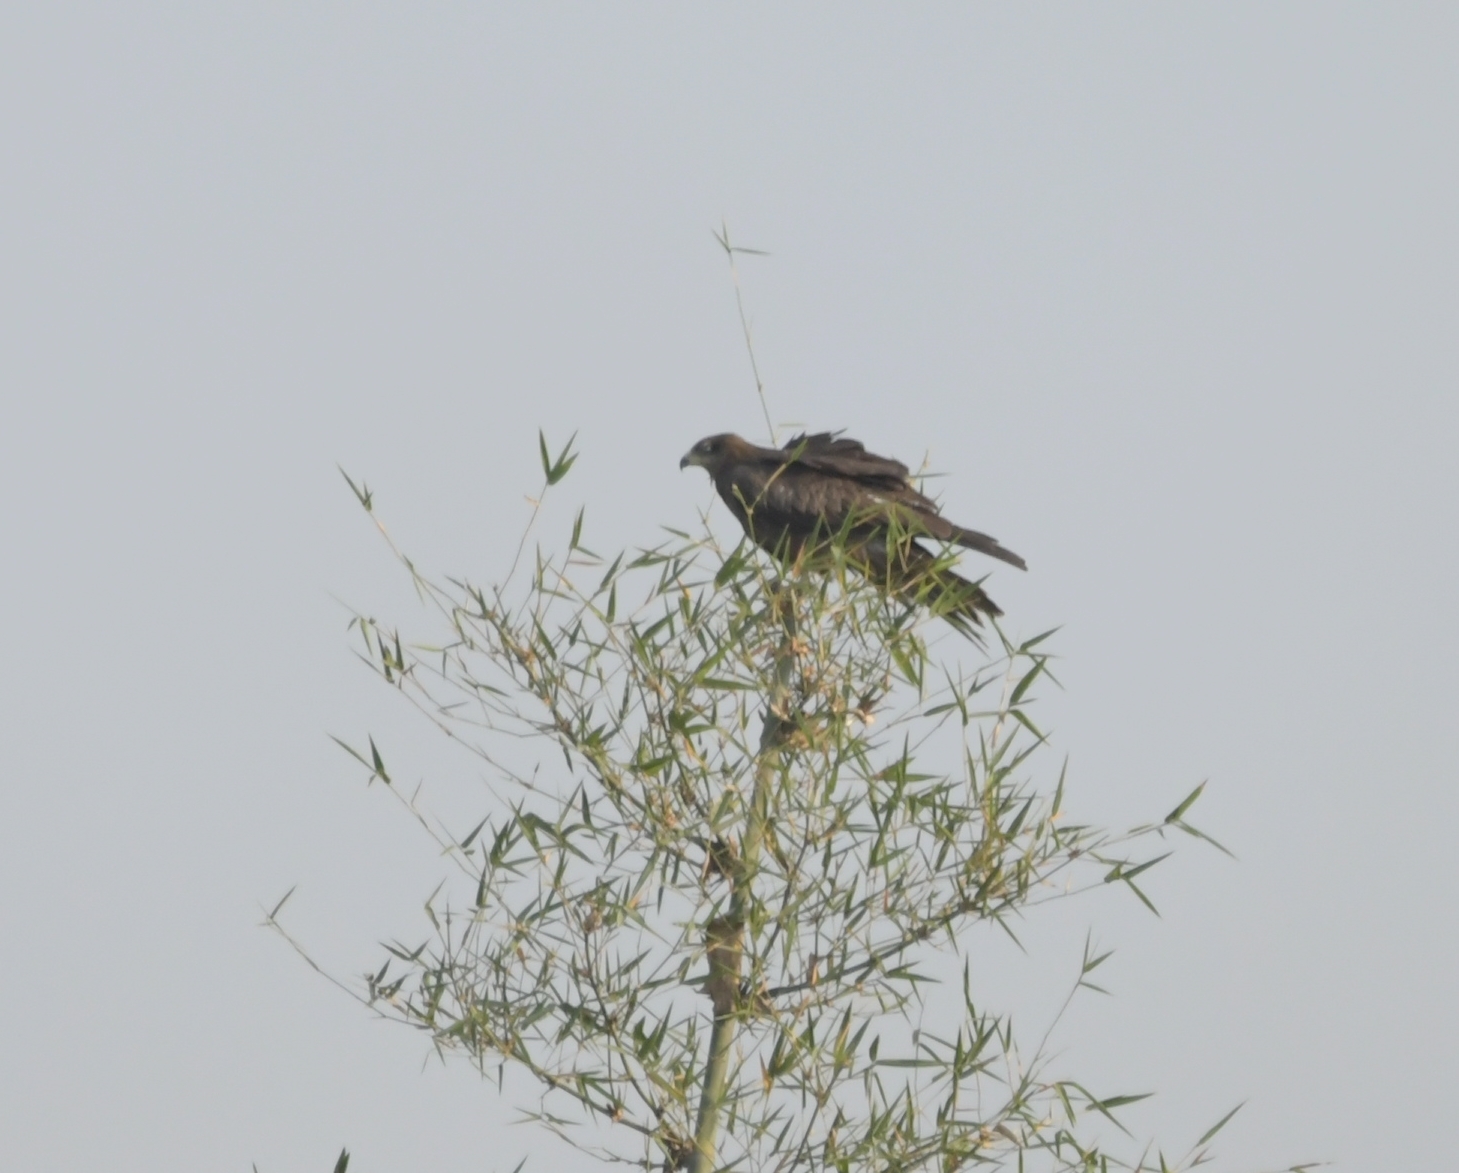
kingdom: Animalia
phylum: Chordata
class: Aves
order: Accipitriformes
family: Accipitridae
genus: Milvus
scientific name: Milvus migrans
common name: Black kite
